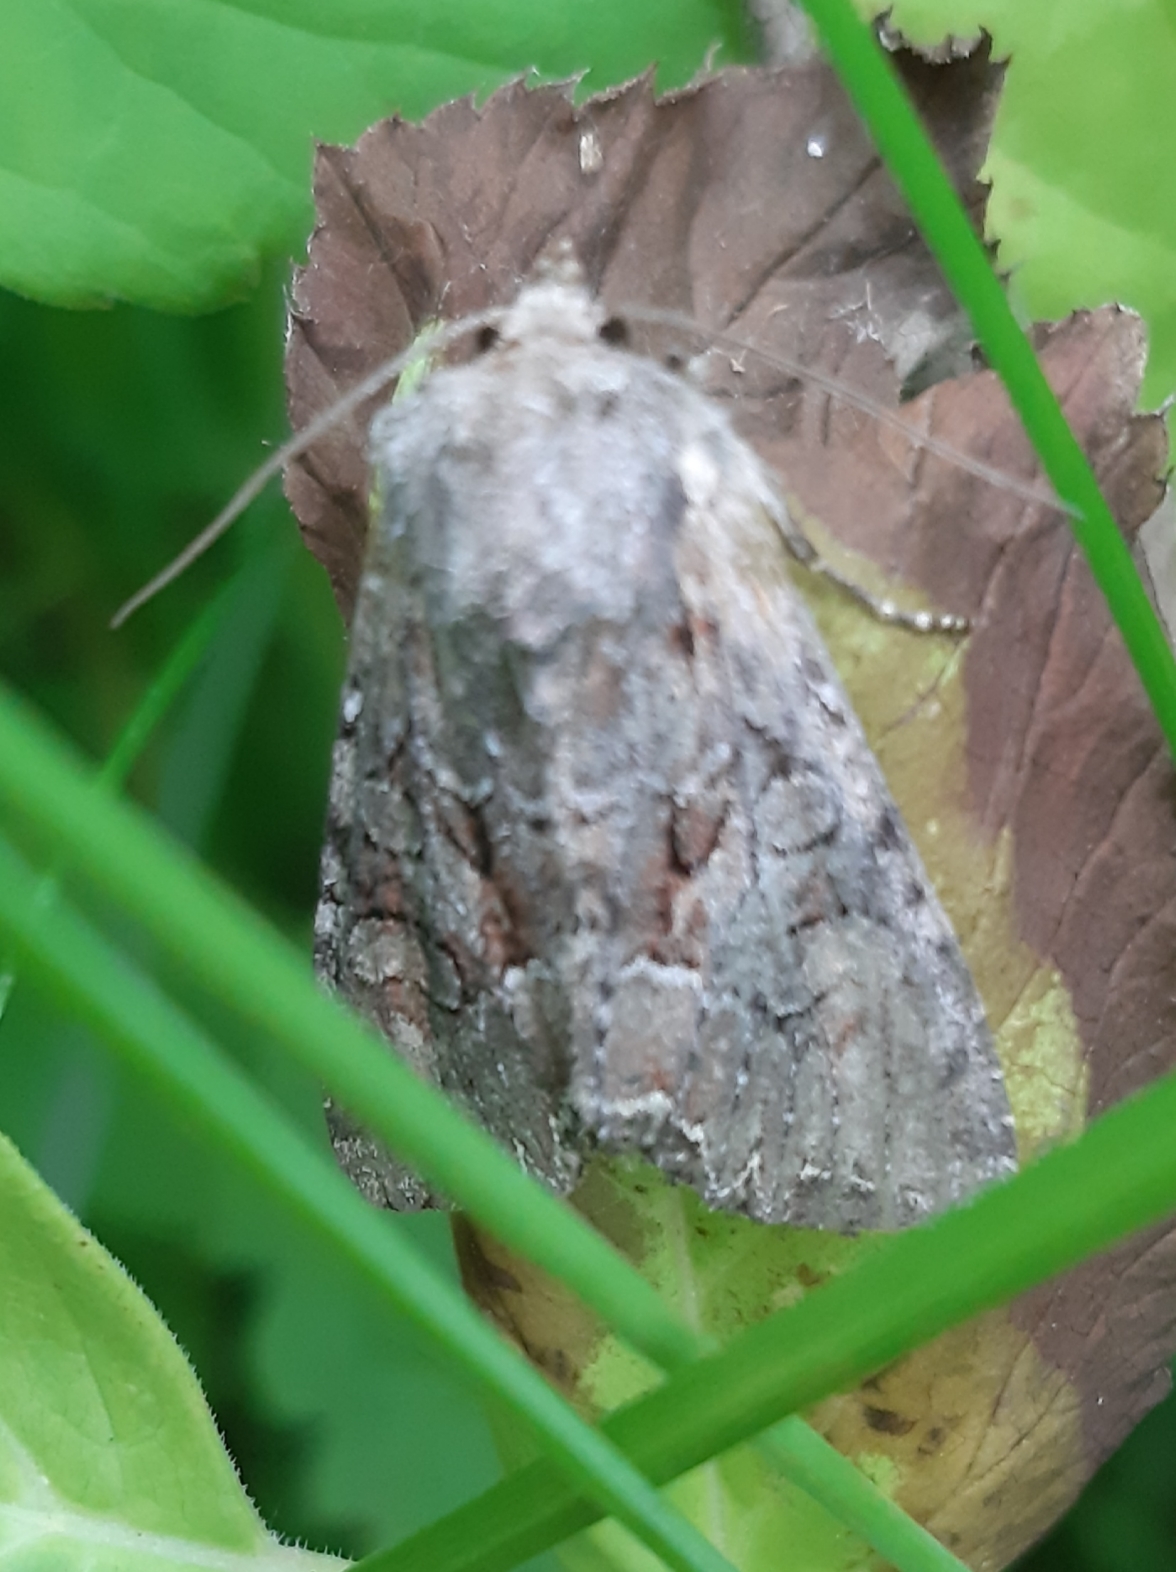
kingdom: Animalia
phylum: Arthropoda
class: Insecta
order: Lepidoptera
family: Noctuidae
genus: Lacanobia
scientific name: Lacanobia thalassina
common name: Pale-shouldered brocade
